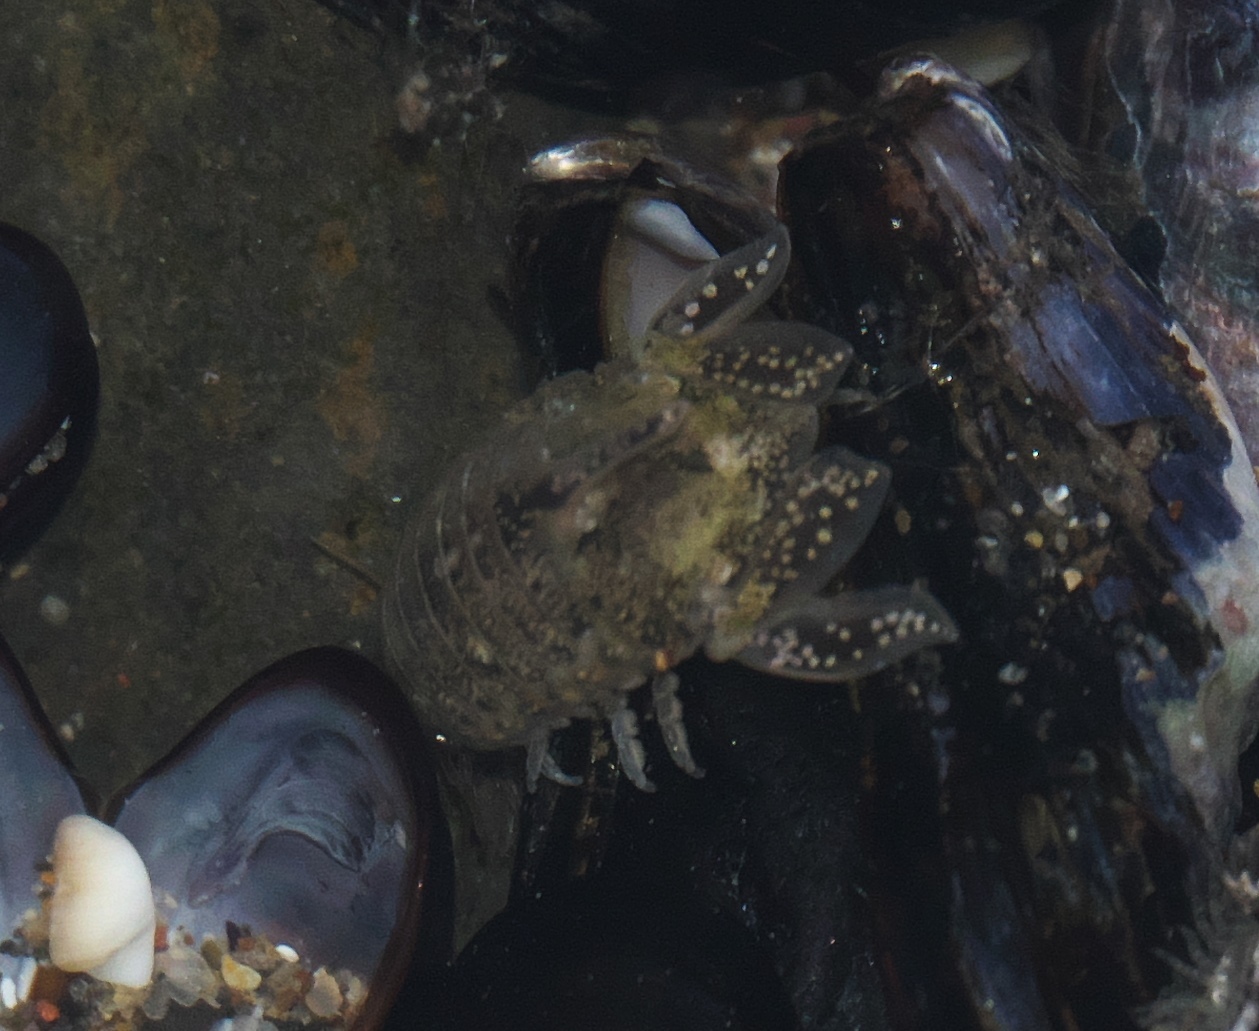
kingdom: Animalia
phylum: Arthropoda
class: Malacostraca
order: Isopoda
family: Sphaeromatidae
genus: Isocladus
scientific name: Isocladus armatus
